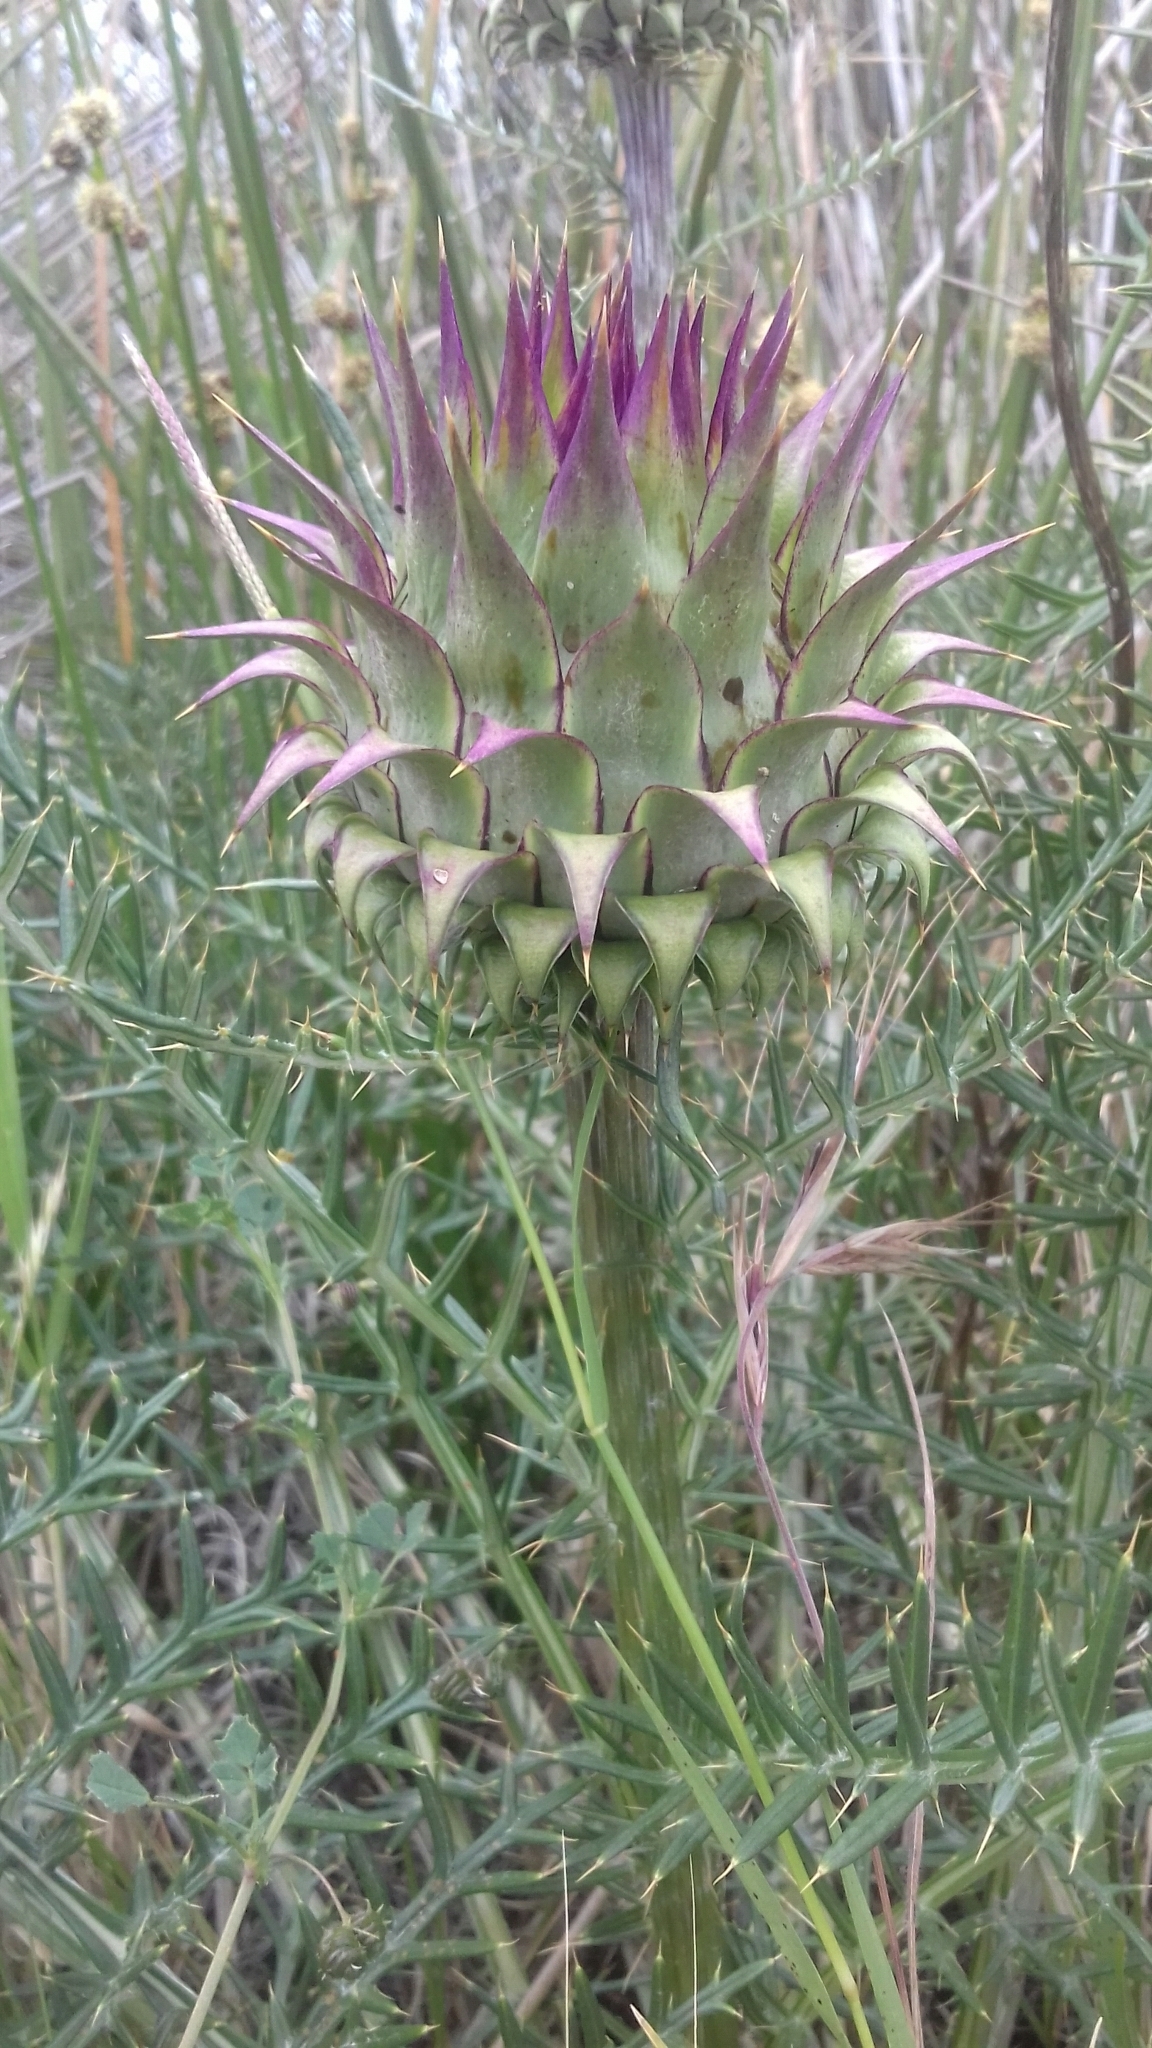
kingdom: Plantae
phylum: Tracheophyta
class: Magnoliopsida
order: Asterales
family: Asteraceae
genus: Cynara
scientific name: Cynara humilis
